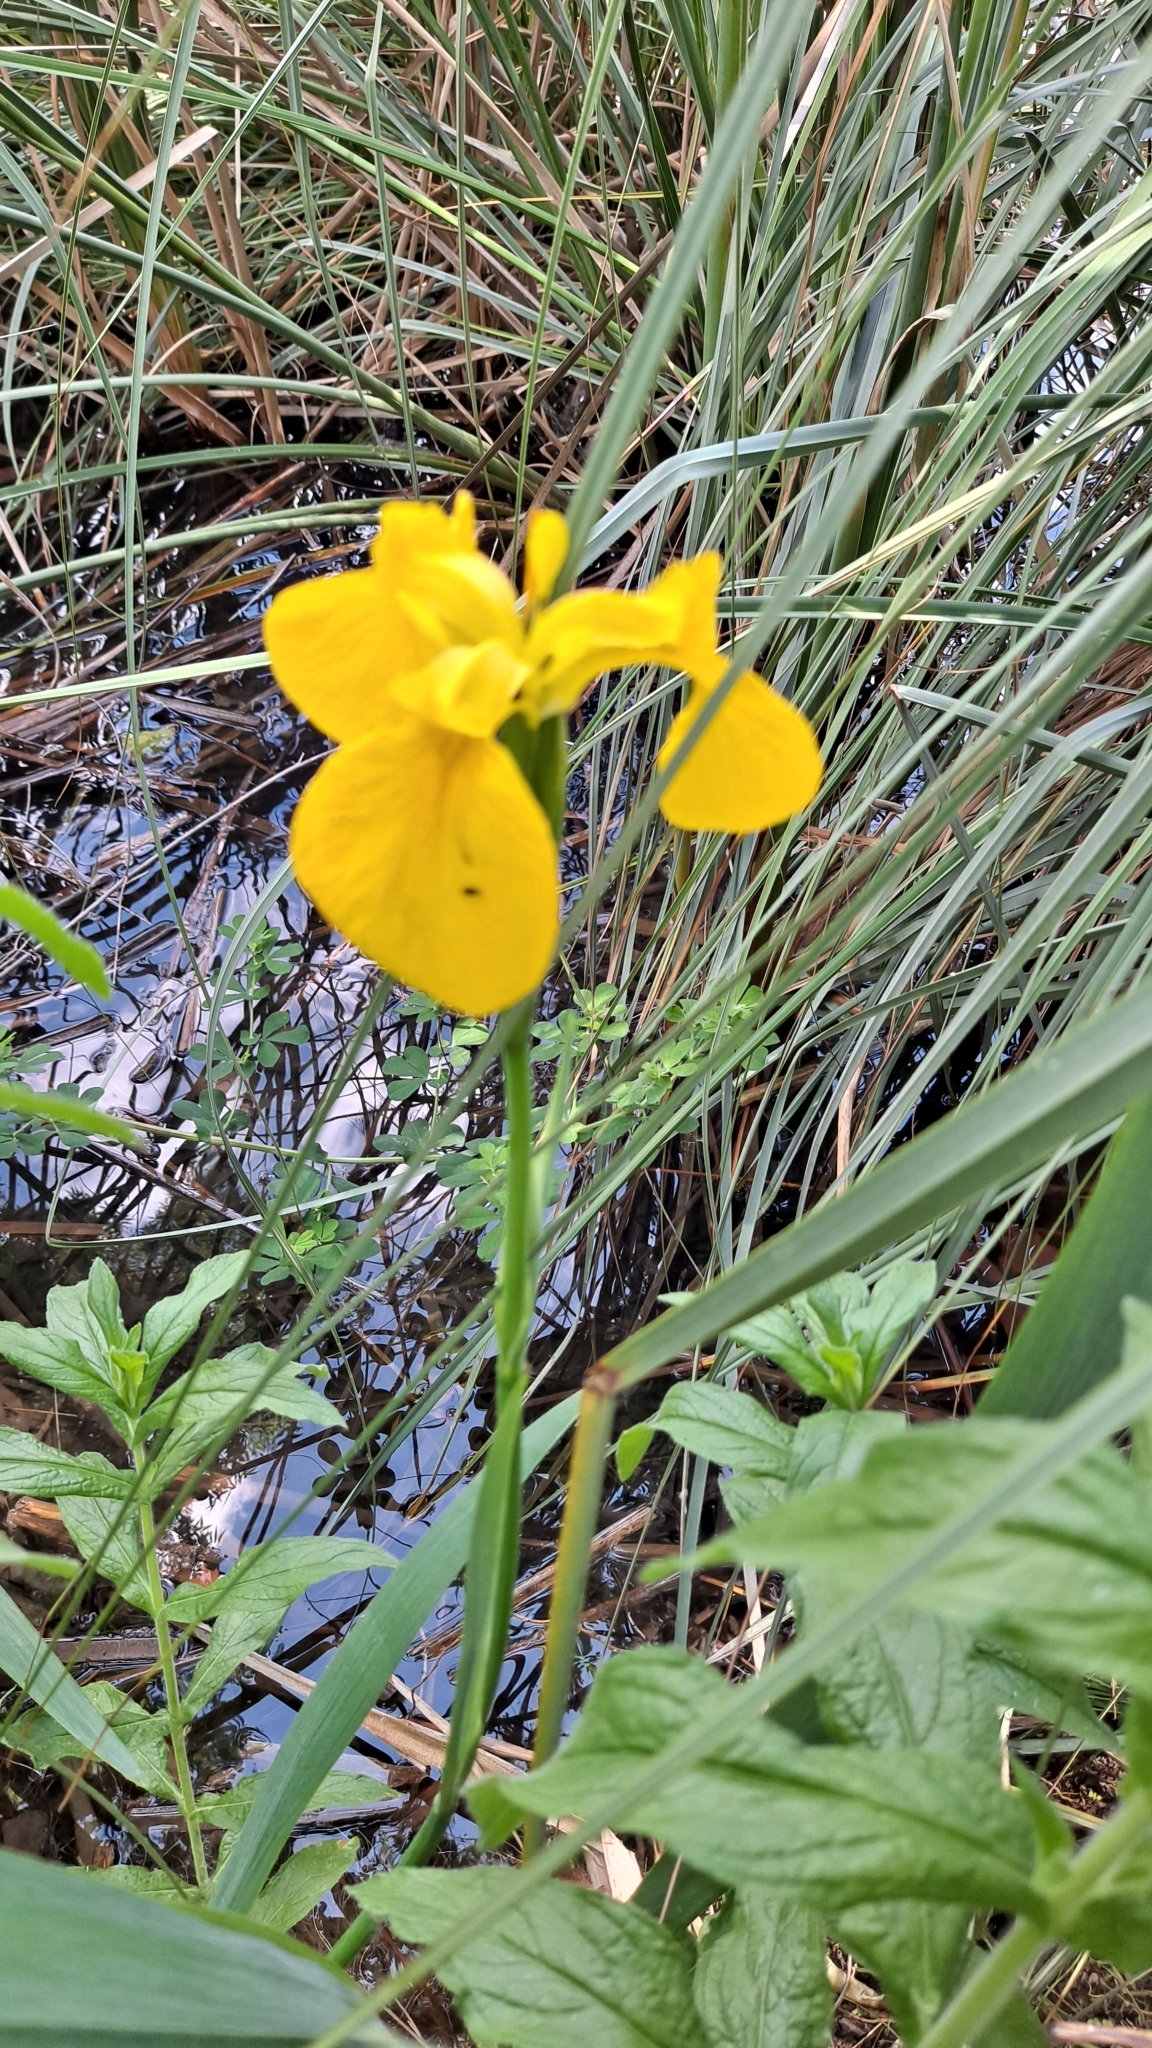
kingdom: Plantae
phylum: Tracheophyta
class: Liliopsida
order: Asparagales
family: Iridaceae
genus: Iris
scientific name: Iris pseudacorus
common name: Yellow flag
